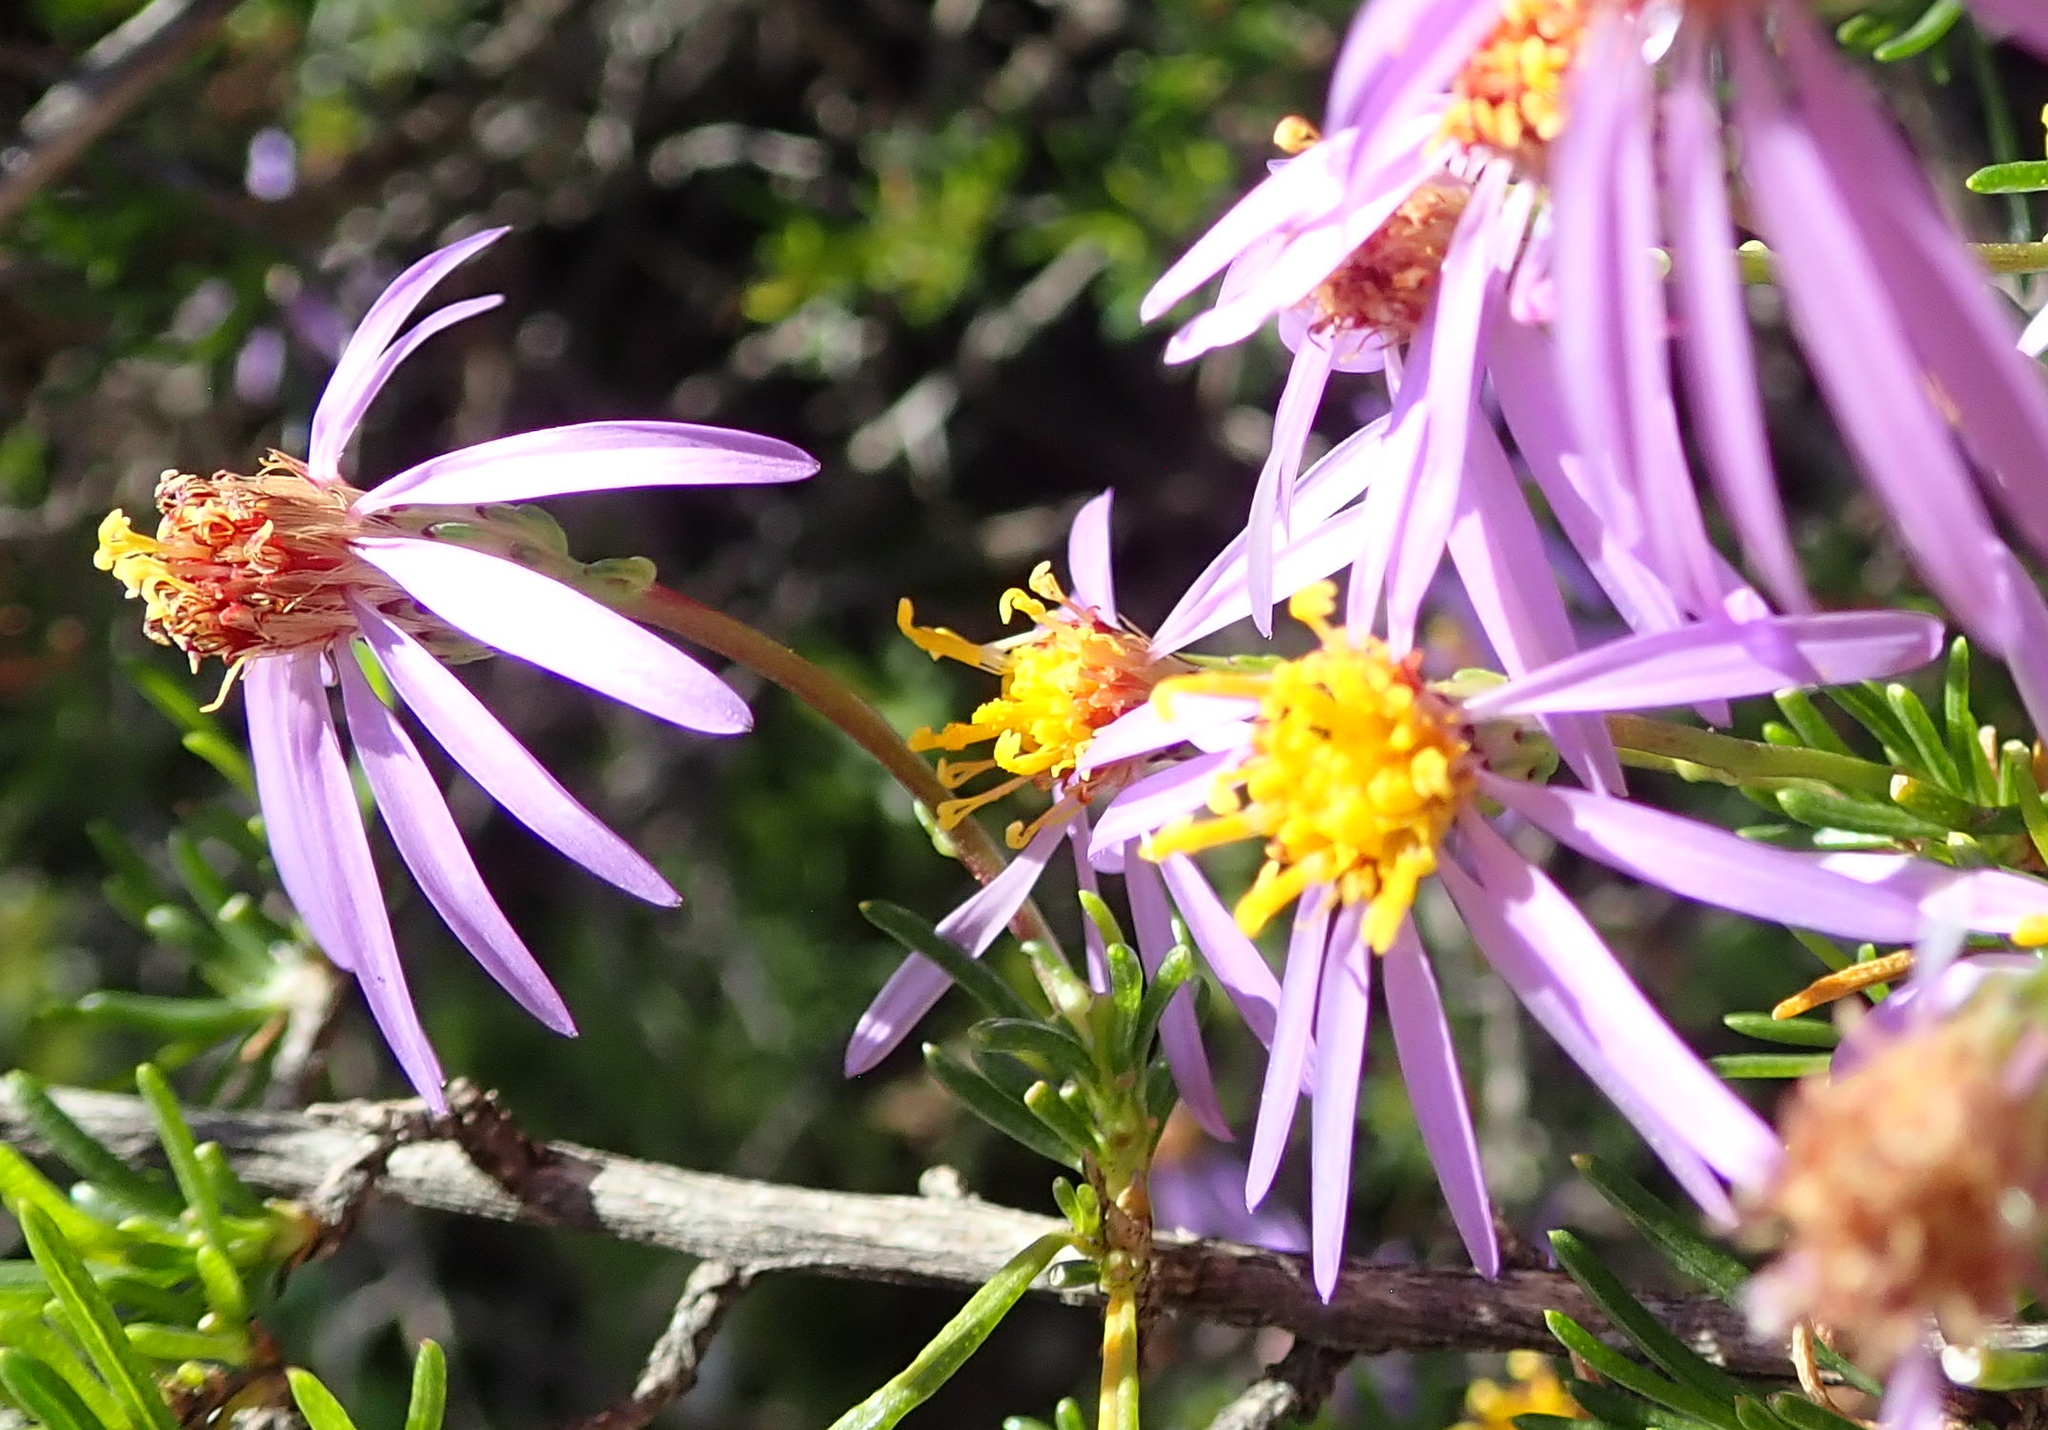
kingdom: Plantae
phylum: Tracheophyta
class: Magnoliopsida
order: Asterales
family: Asteraceae
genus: Felicia
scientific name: Felicia filifolia
